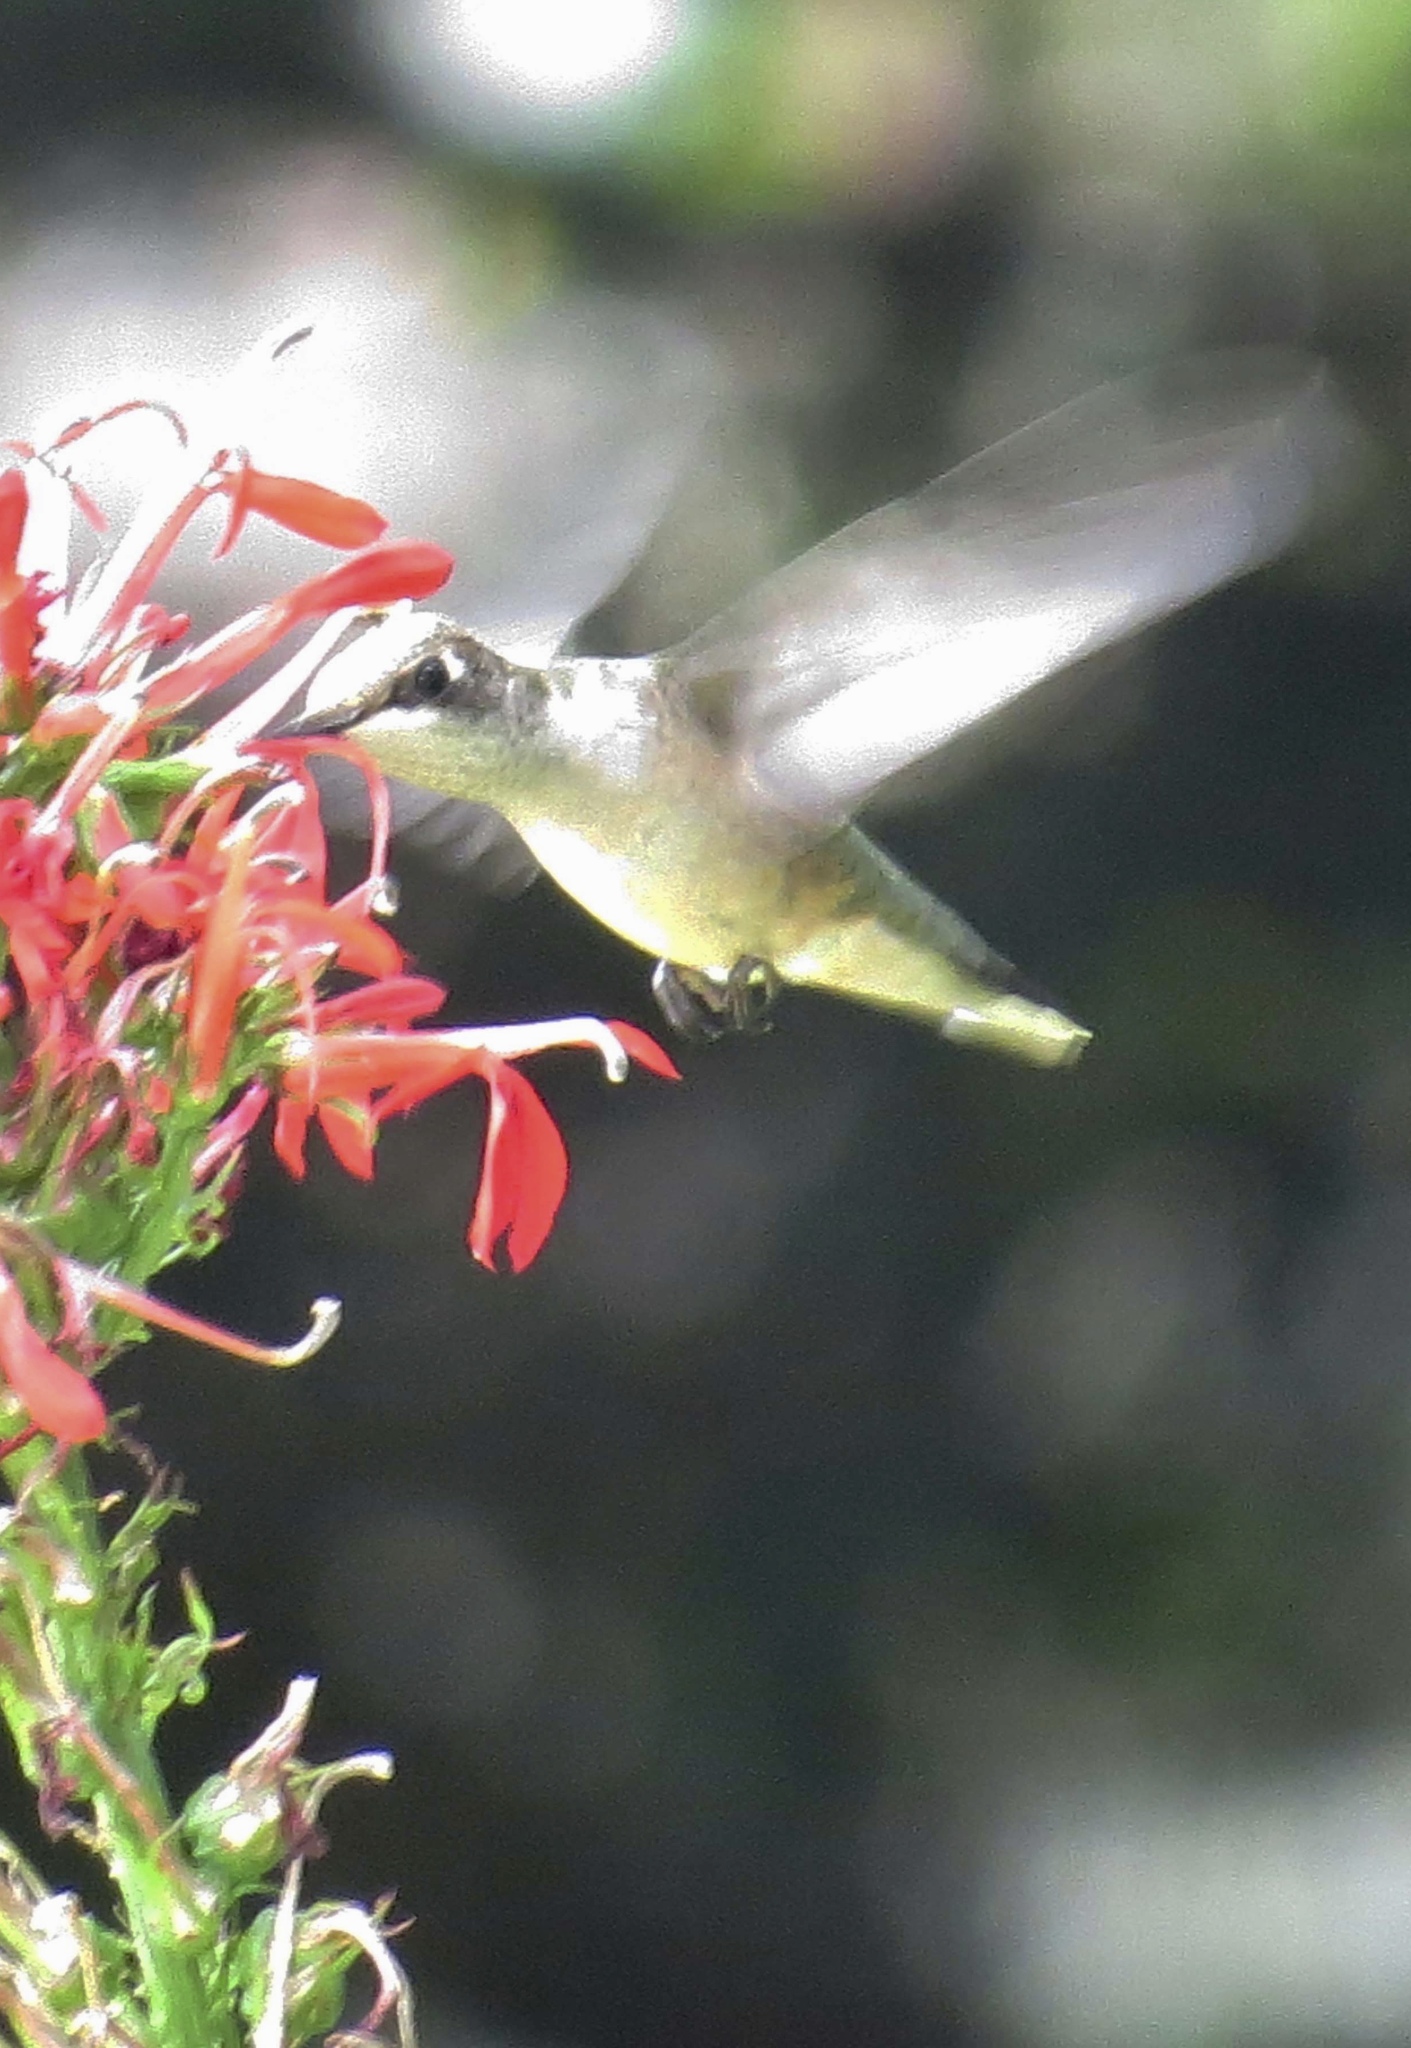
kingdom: Animalia
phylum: Chordata
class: Aves
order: Apodiformes
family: Trochilidae
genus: Archilochus
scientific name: Archilochus colubris
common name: Ruby-throated hummingbird
